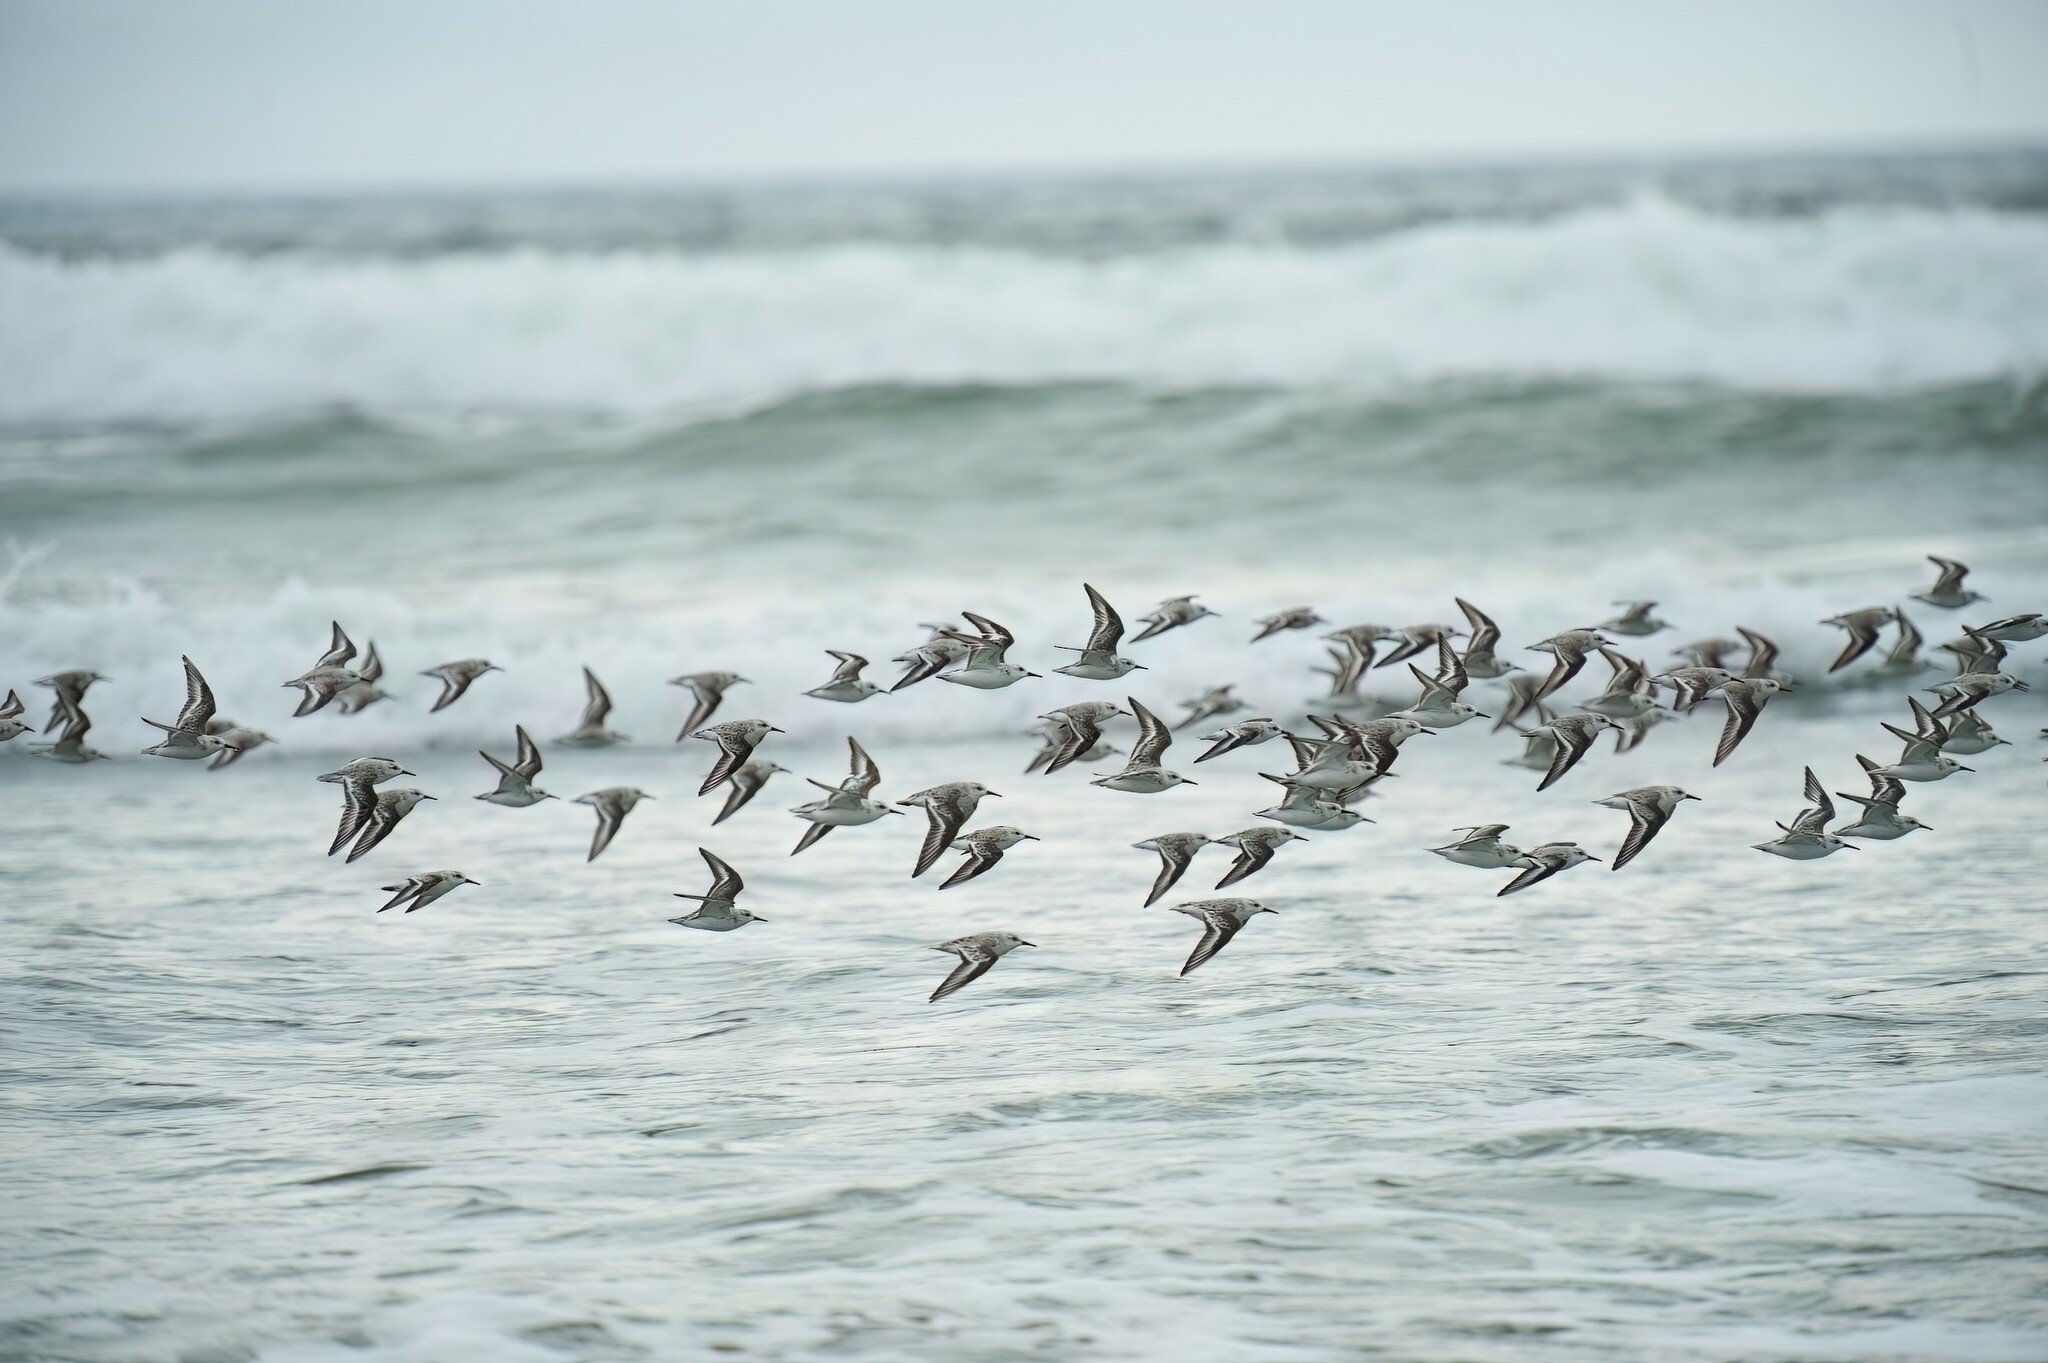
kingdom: Animalia
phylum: Chordata
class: Aves
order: Charadriiformes
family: Scolopacidae
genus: Calidris
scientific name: Calidris alba
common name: Sanderling
